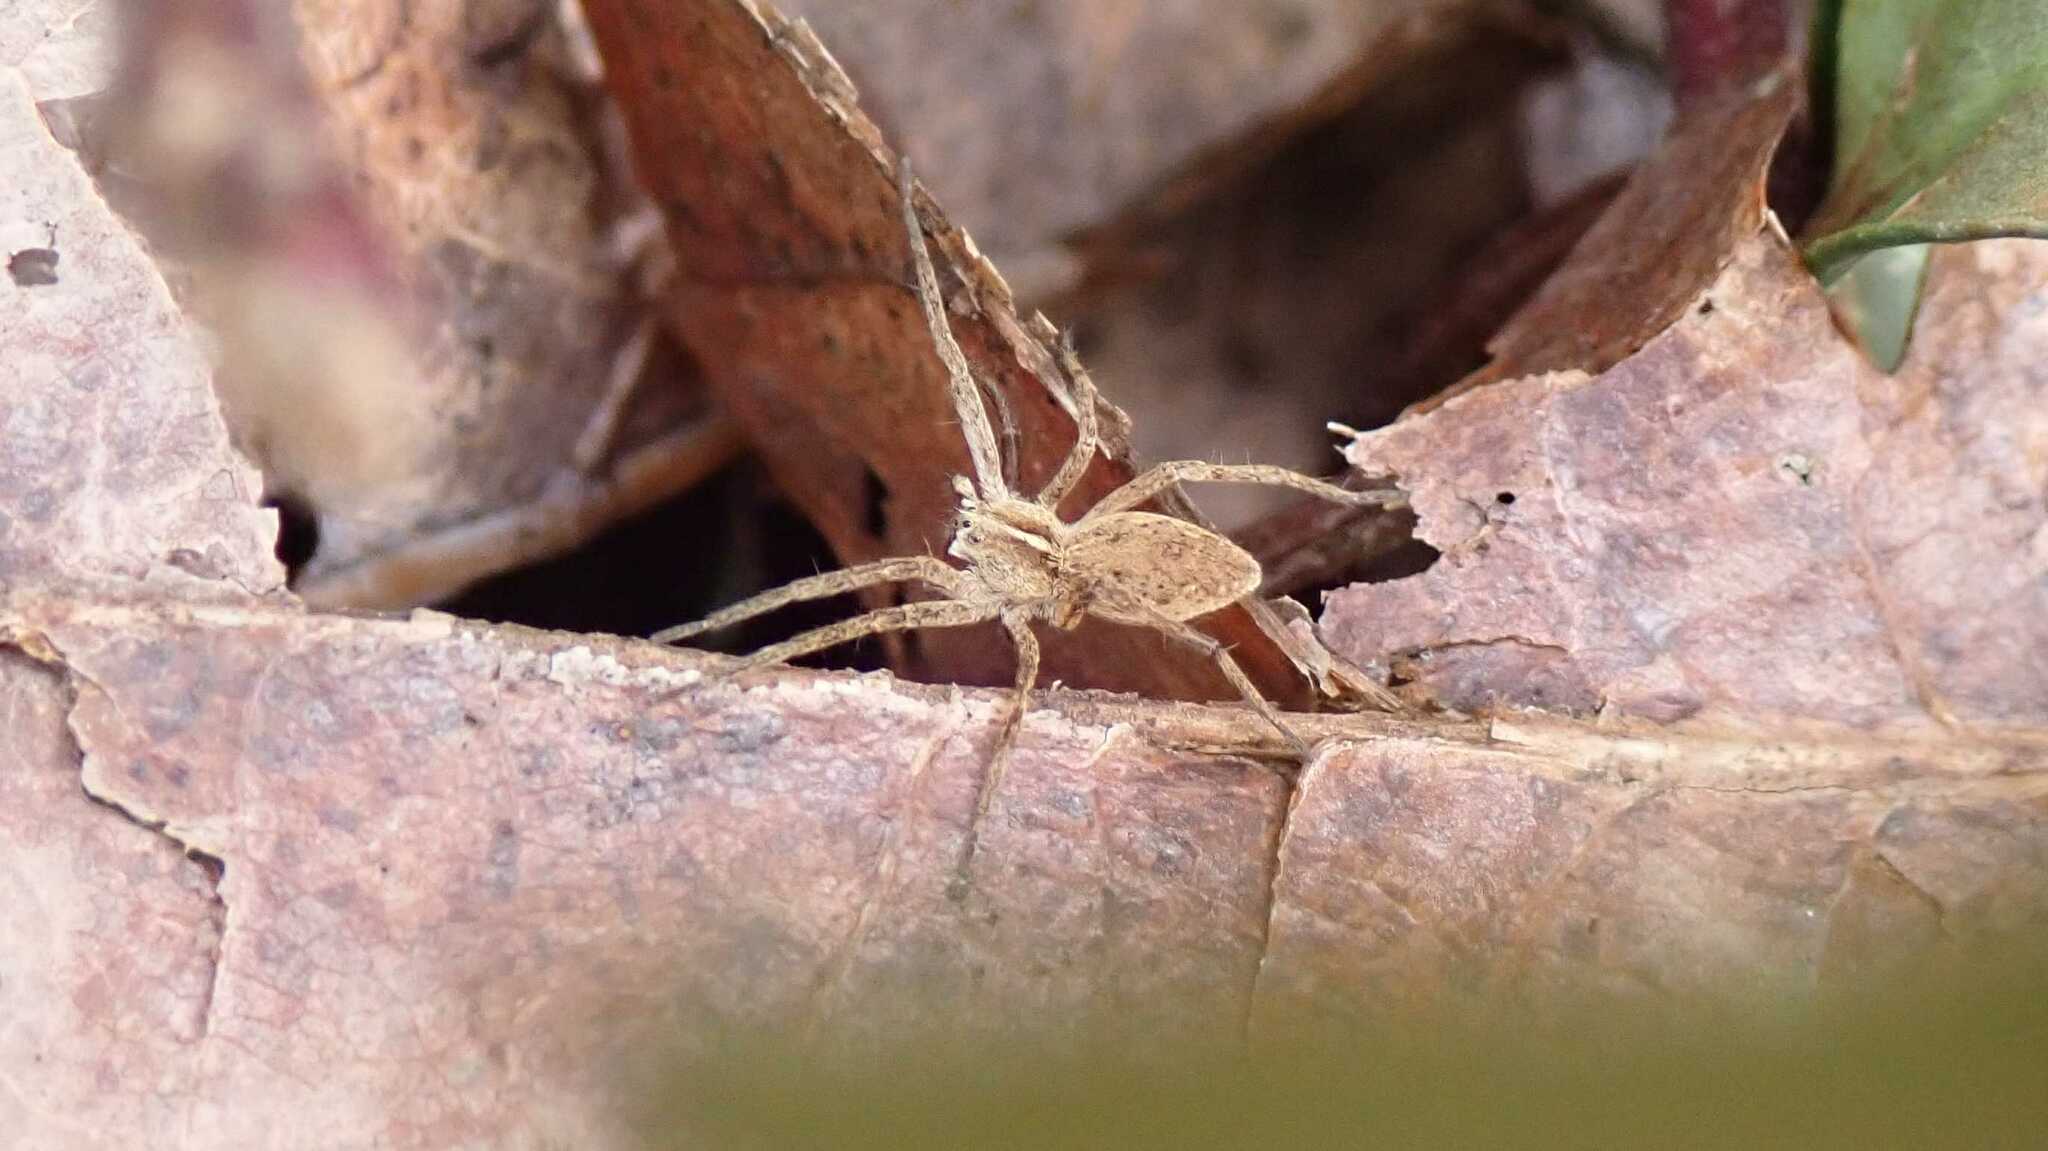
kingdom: Animalia
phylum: Arthropoda
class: Arachnida
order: Araneae
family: Pisauridae
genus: Pisaura
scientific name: Pisaura mirabilis
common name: Tent spider
